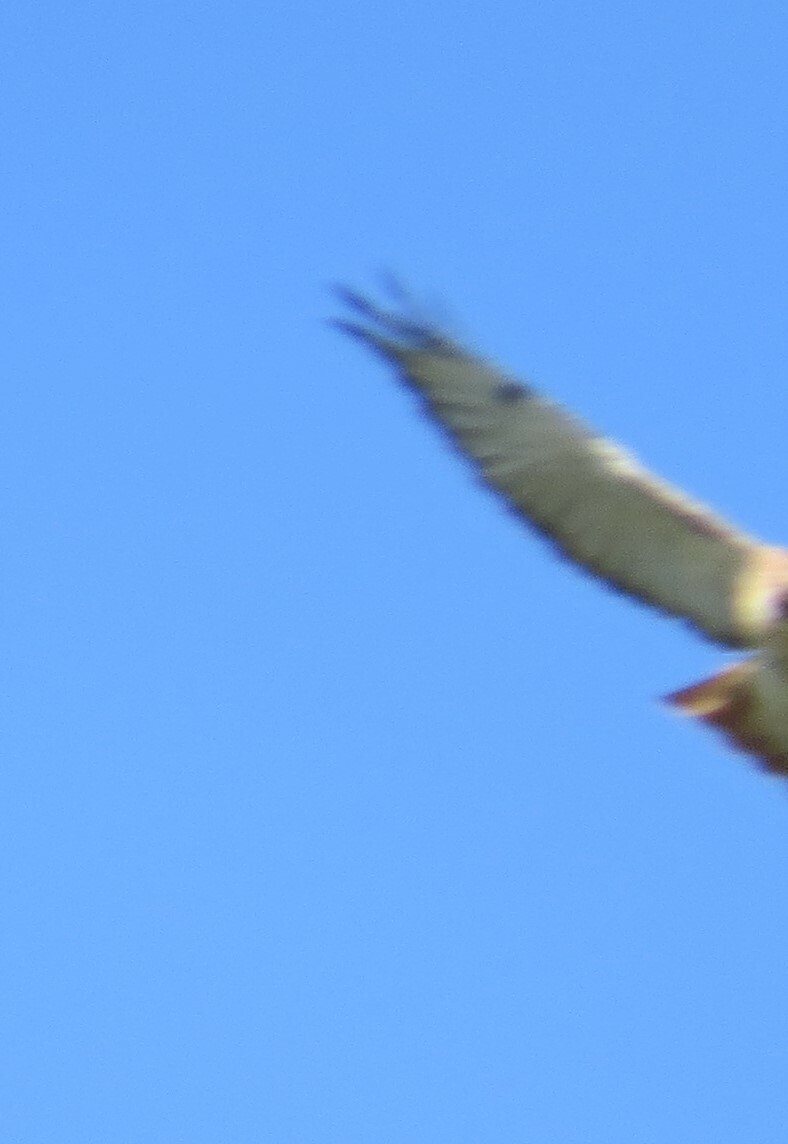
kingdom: Animalia
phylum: Chordata
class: Aves
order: Accipitriformes
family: Accipitridae
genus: Buteo
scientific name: Buteo jamaicensis
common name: Red-tailed hawk
